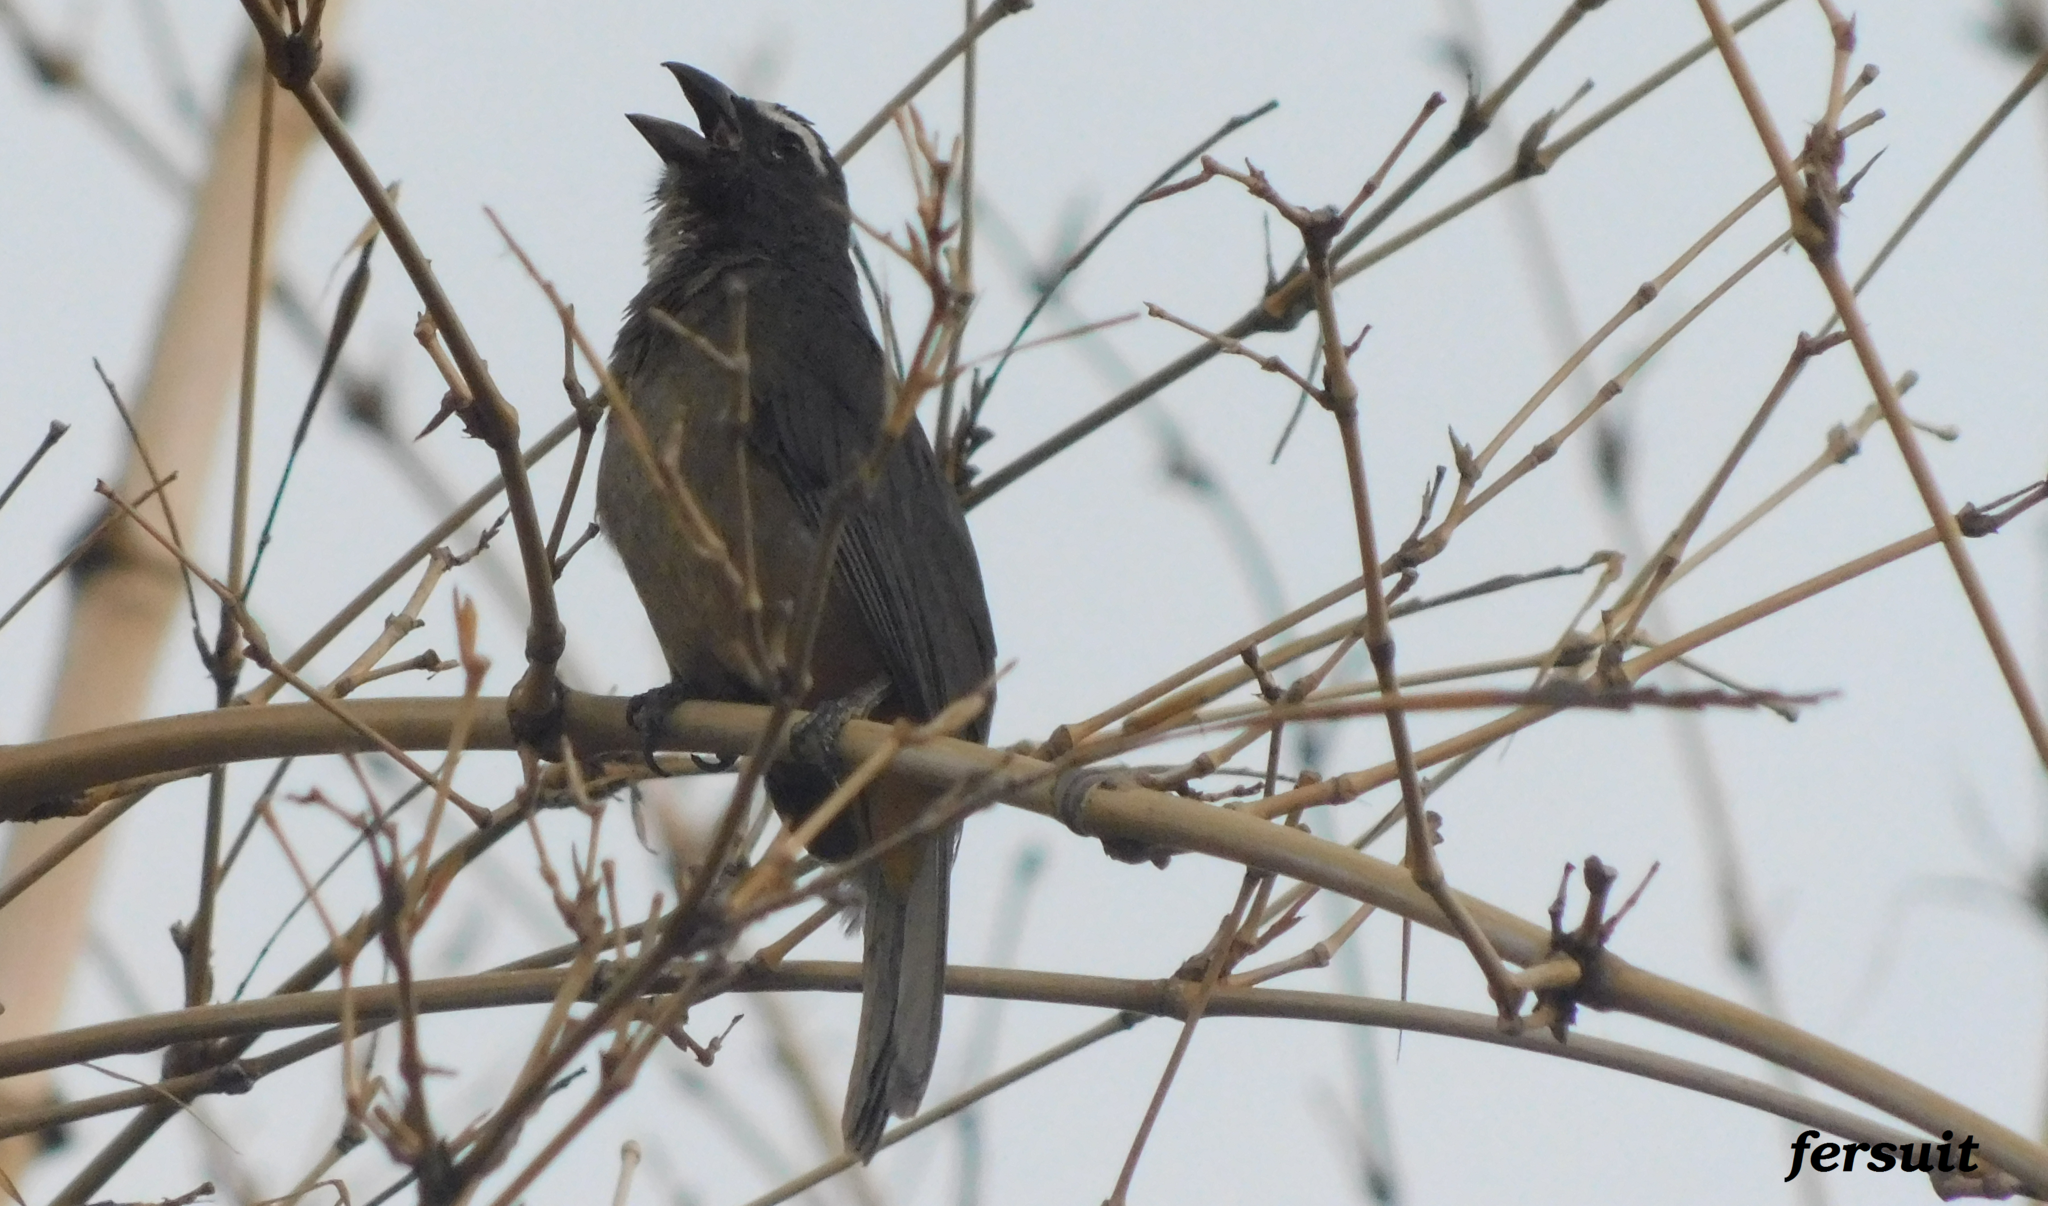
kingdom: Animalia
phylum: Chordata
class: Aves
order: Passeriformes
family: Thraupidae
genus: Saltator
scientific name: Saltator grandis
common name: Cinnamon-bellied saltator
